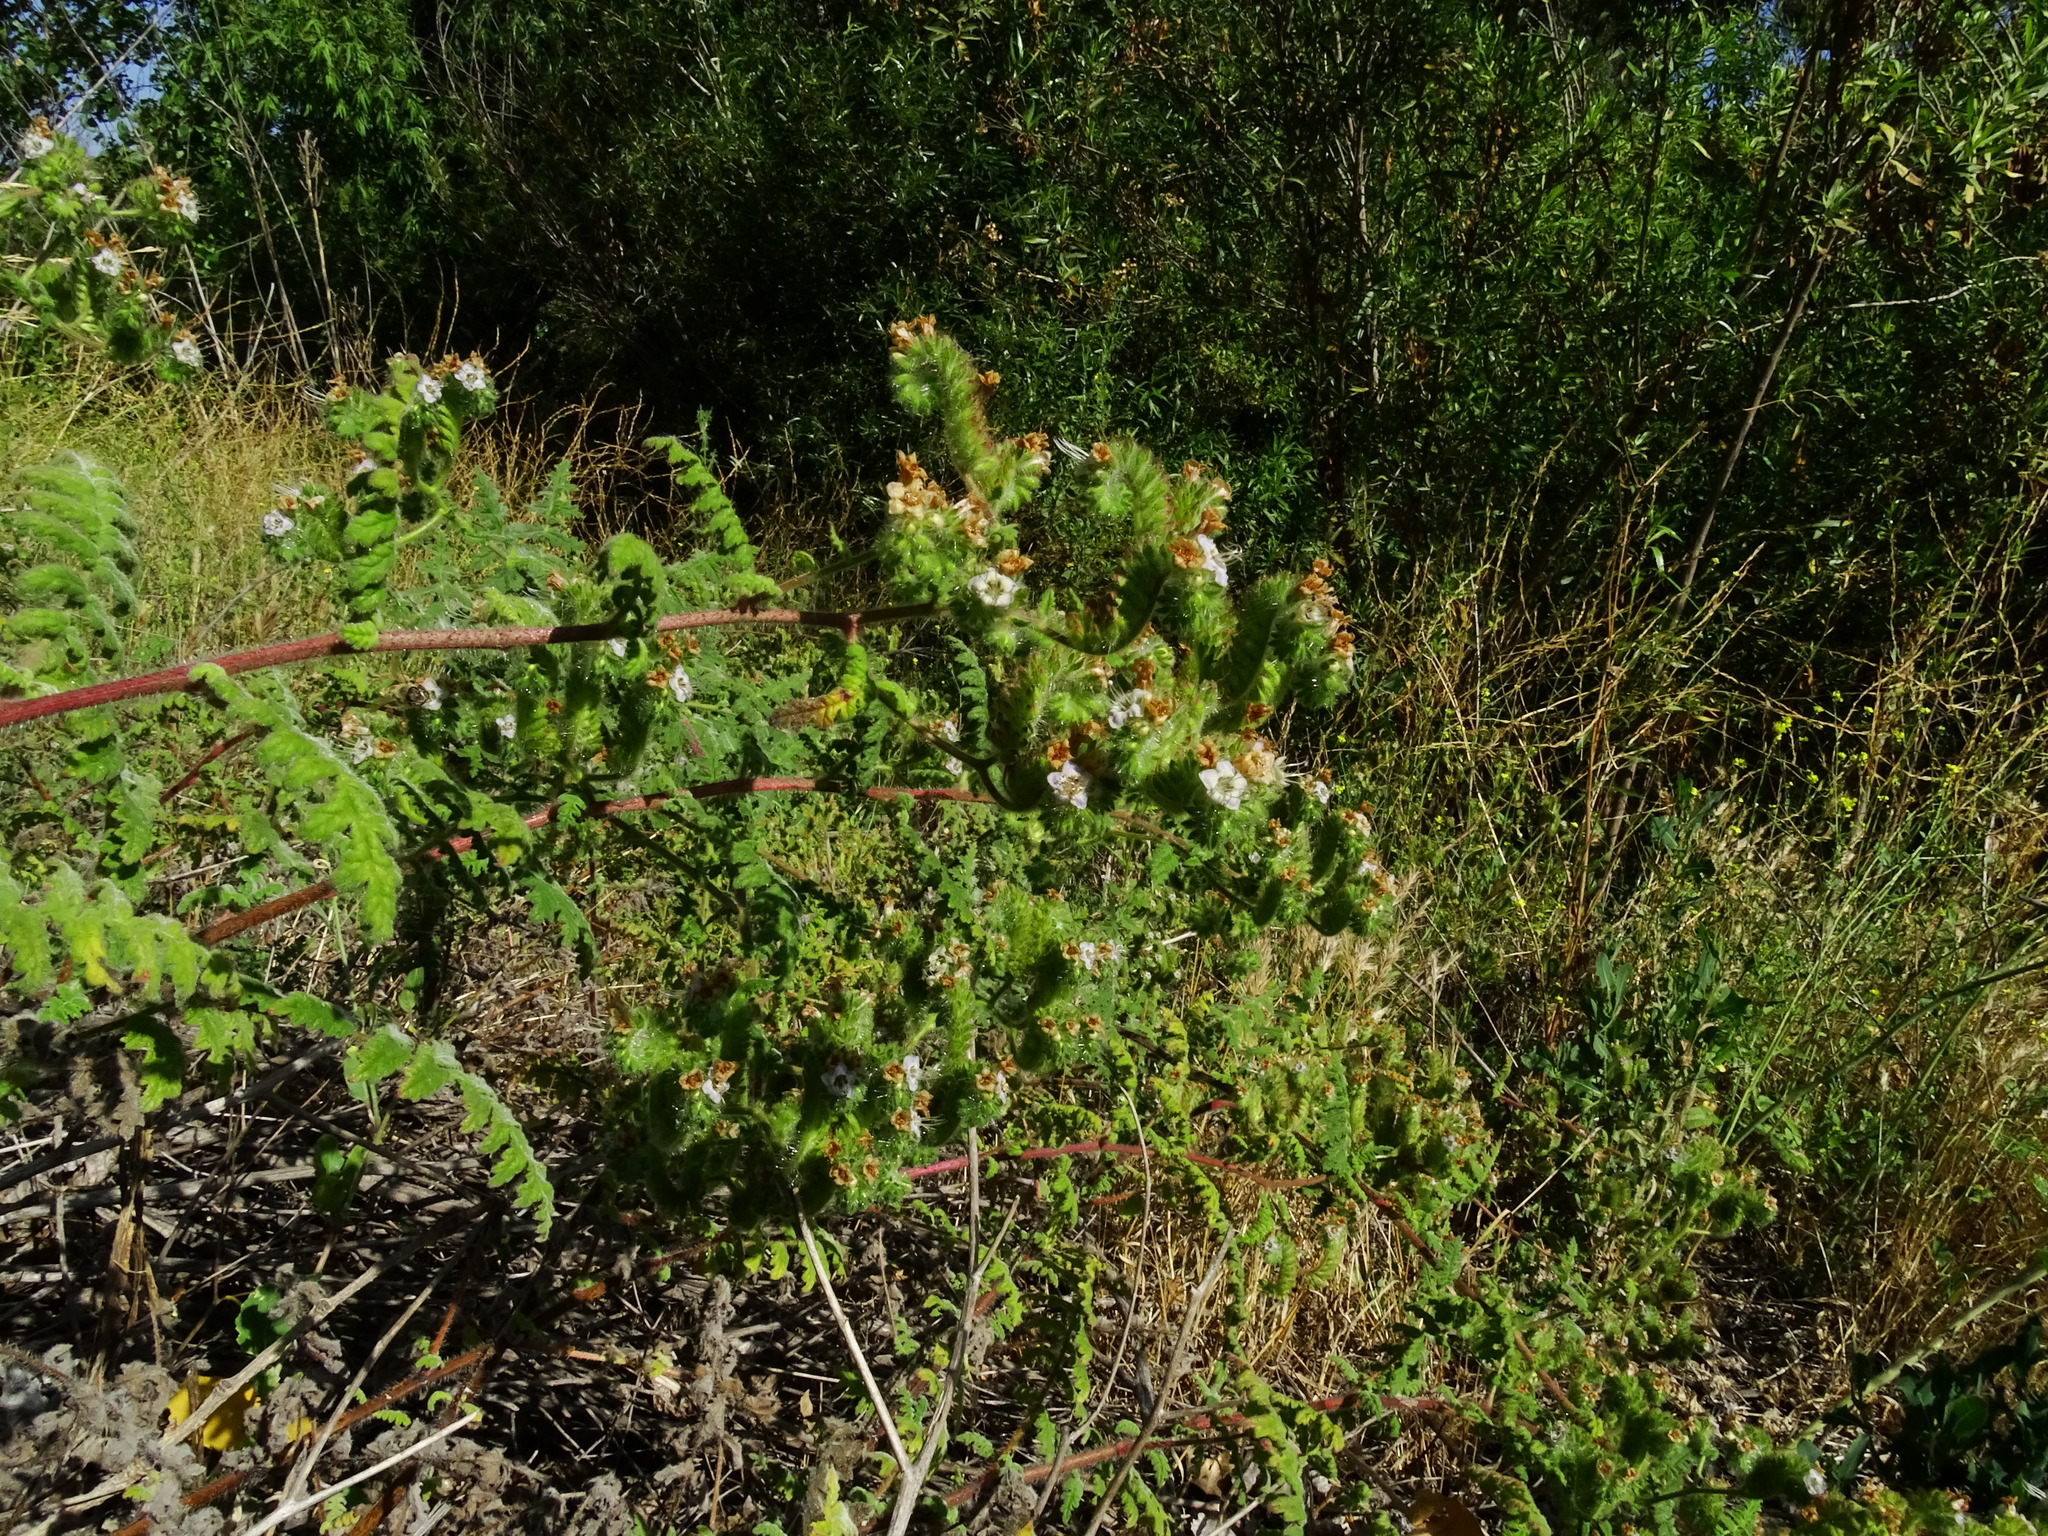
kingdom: Plantae
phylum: Tracheophyta
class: Magnoliopsida
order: Boraginales
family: Hydrophyllaceae
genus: Phacelia
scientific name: Phacelia ramosissima
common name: Branching phacelia
